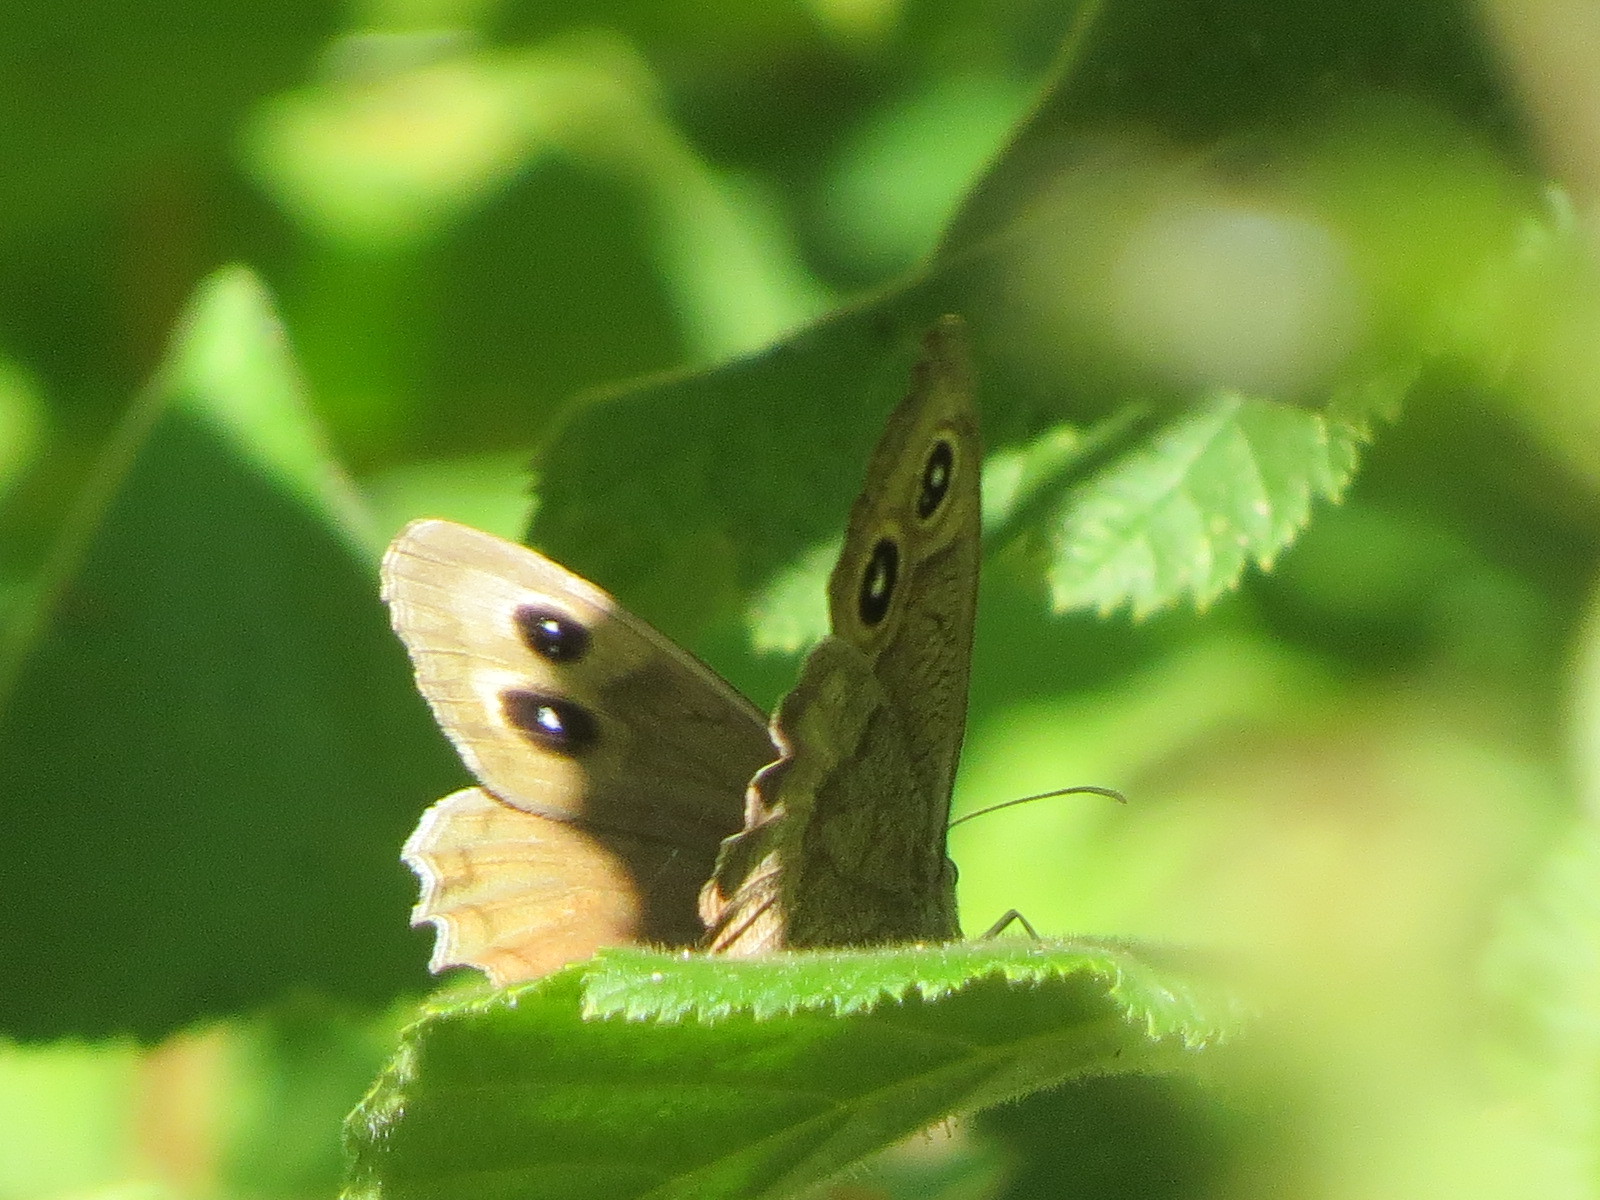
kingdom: Animalia
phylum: Arthropoda
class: Insecta
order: Lepidoptera
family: Nymphalidae
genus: Cercyonis
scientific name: Cercyonis pegala
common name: Common wood-nymph
